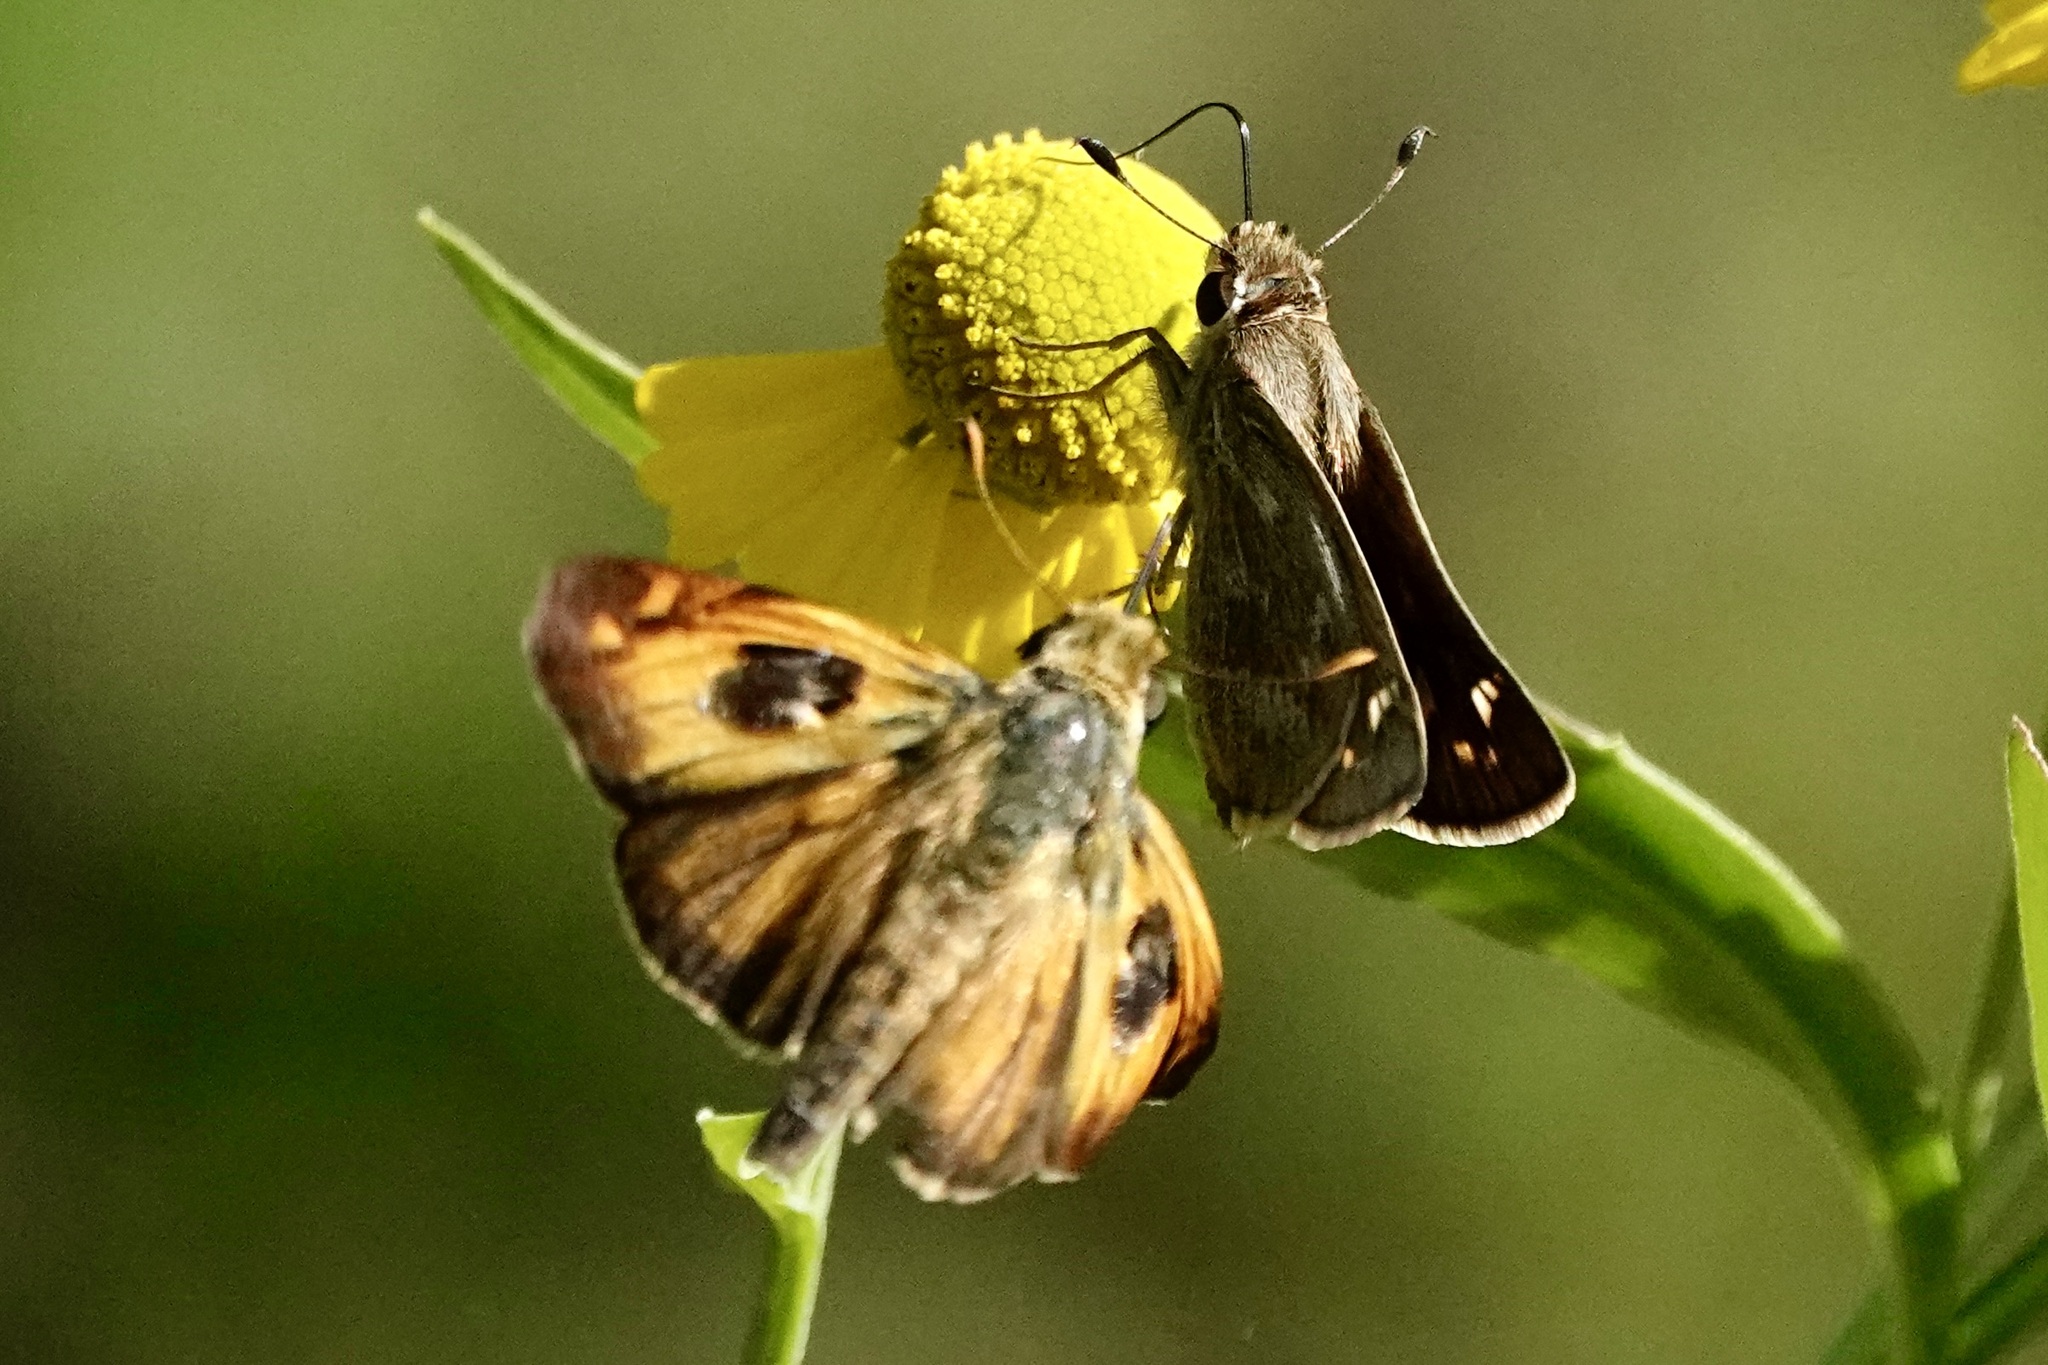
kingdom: Animalia
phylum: Arthropoda
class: Insecta
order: Lepidoptera
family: Hesperiidae
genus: Atalopedes
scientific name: Atalopedes
